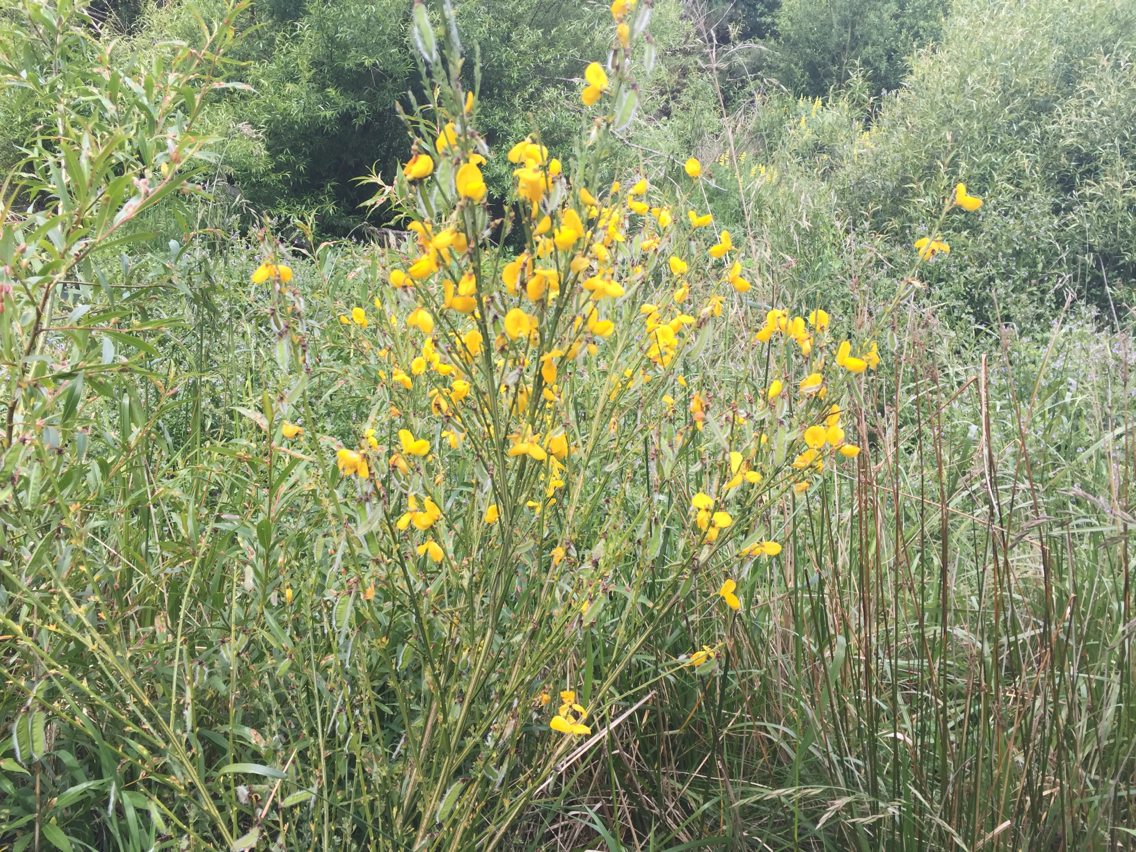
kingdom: Plantae
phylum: Tracheophyta
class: Magnoliopsida
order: Fabales
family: Fabaceae
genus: Cytisus
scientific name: Cytisus scoparius
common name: Scotch broom
